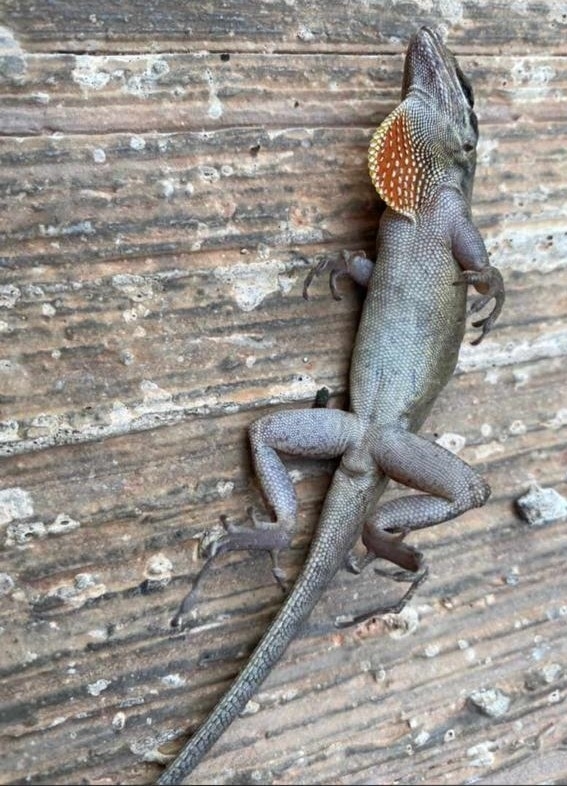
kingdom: Animalia
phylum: Chordata
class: Squamata
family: Dactyloidae
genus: Anolis
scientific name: Anolis sagrei
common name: Brown anole
